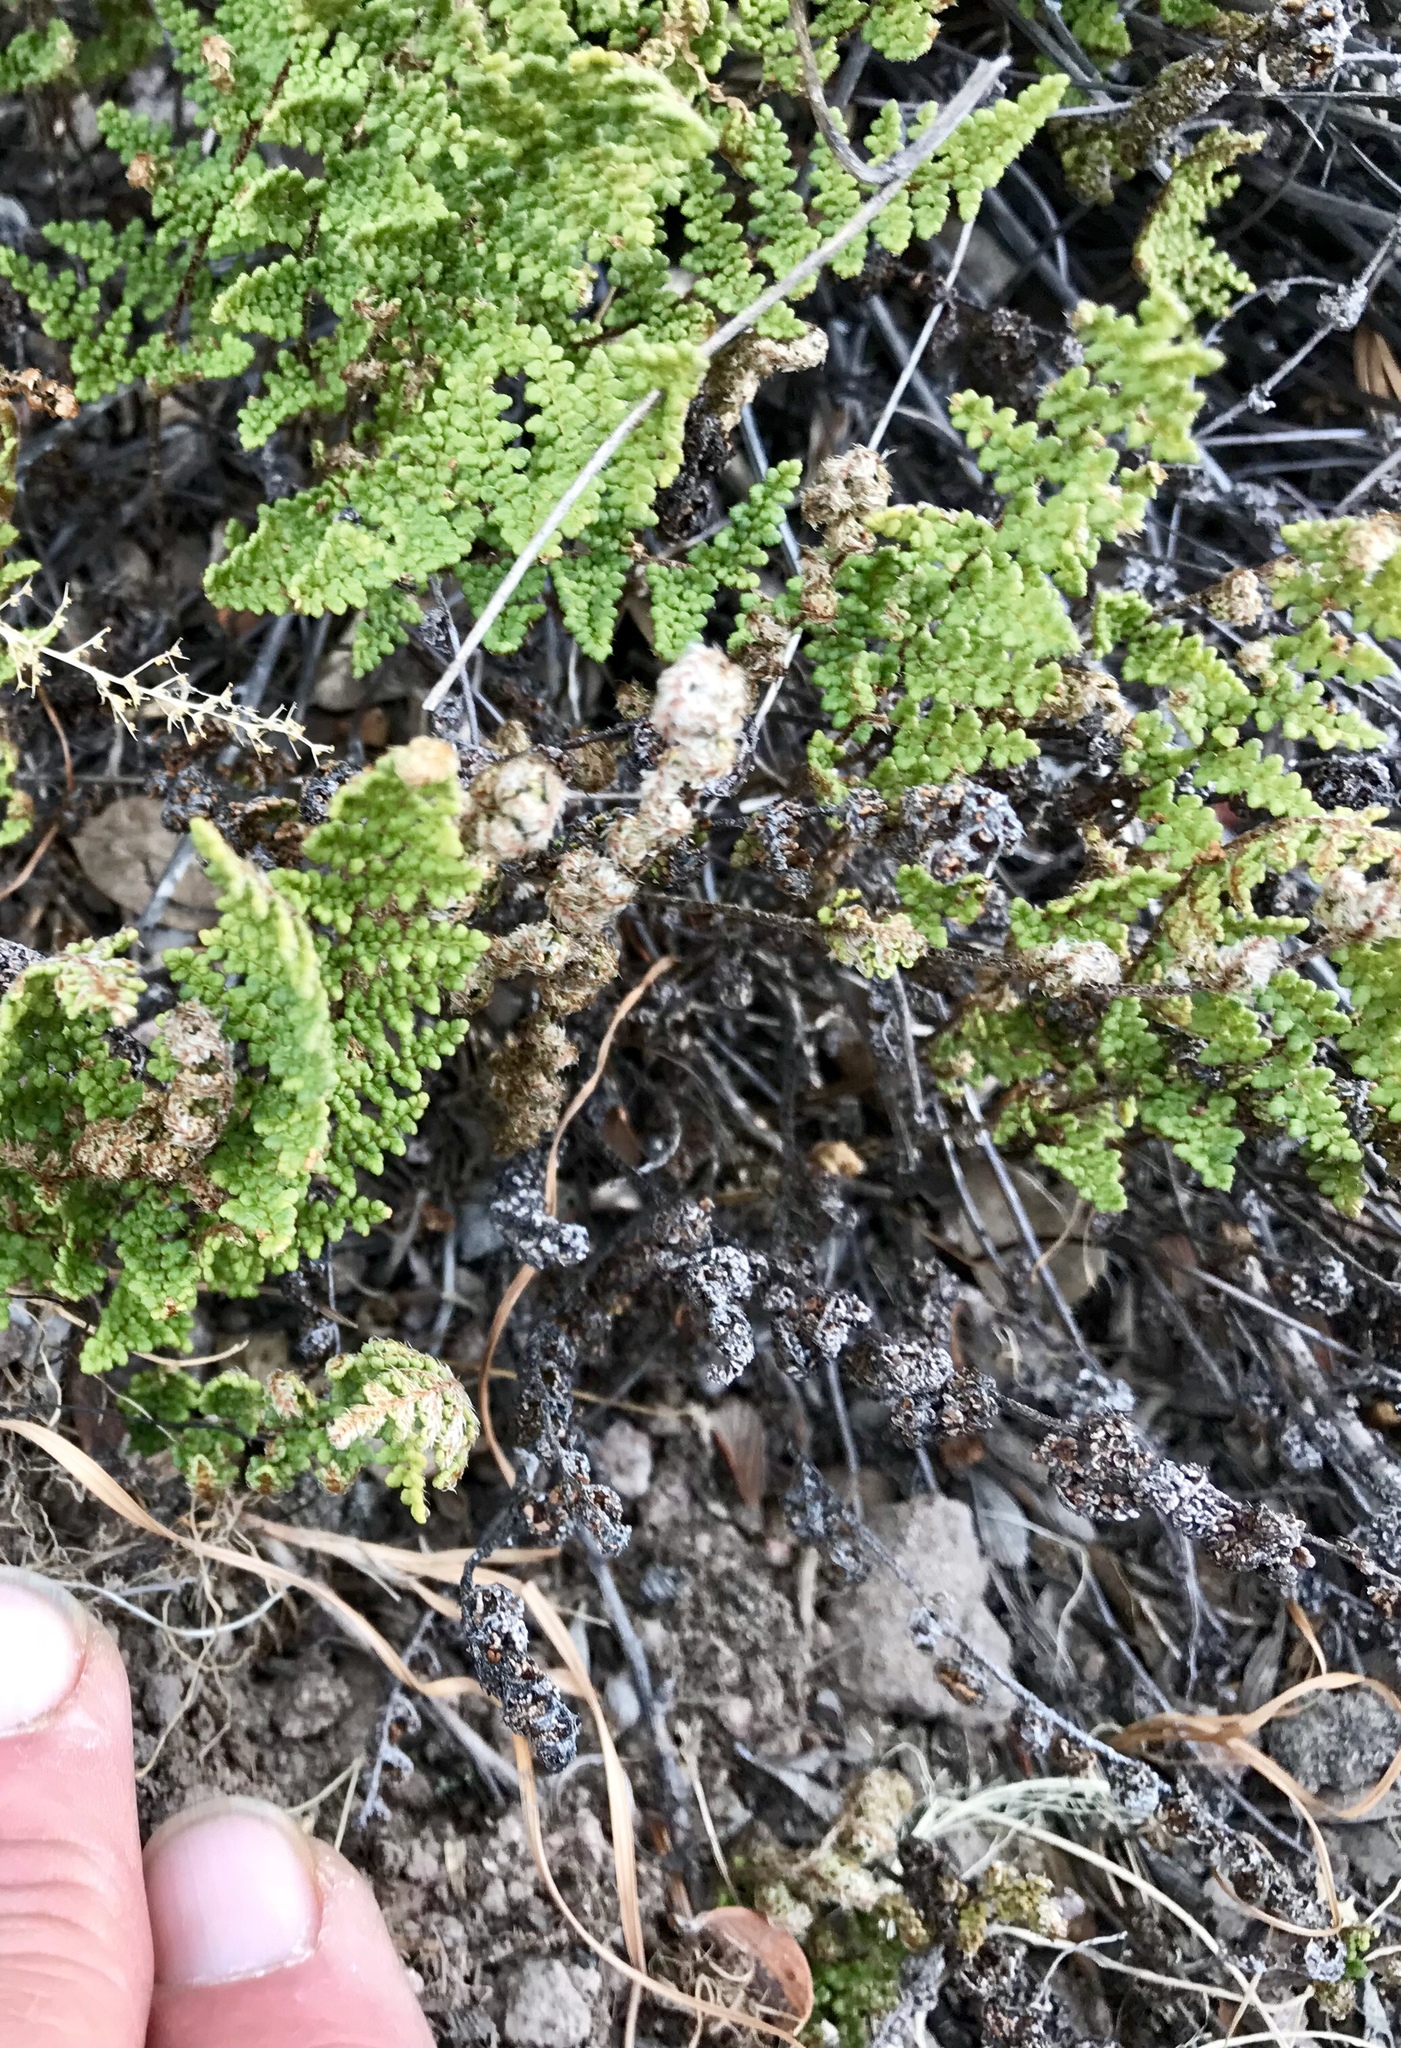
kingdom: Plantae
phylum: Tracheophyta
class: Polypodiopsida
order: Polypodiales
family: Pteridaceae
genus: Myriopteris
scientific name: Myriopteris fendleri
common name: Fendler's lip fern
